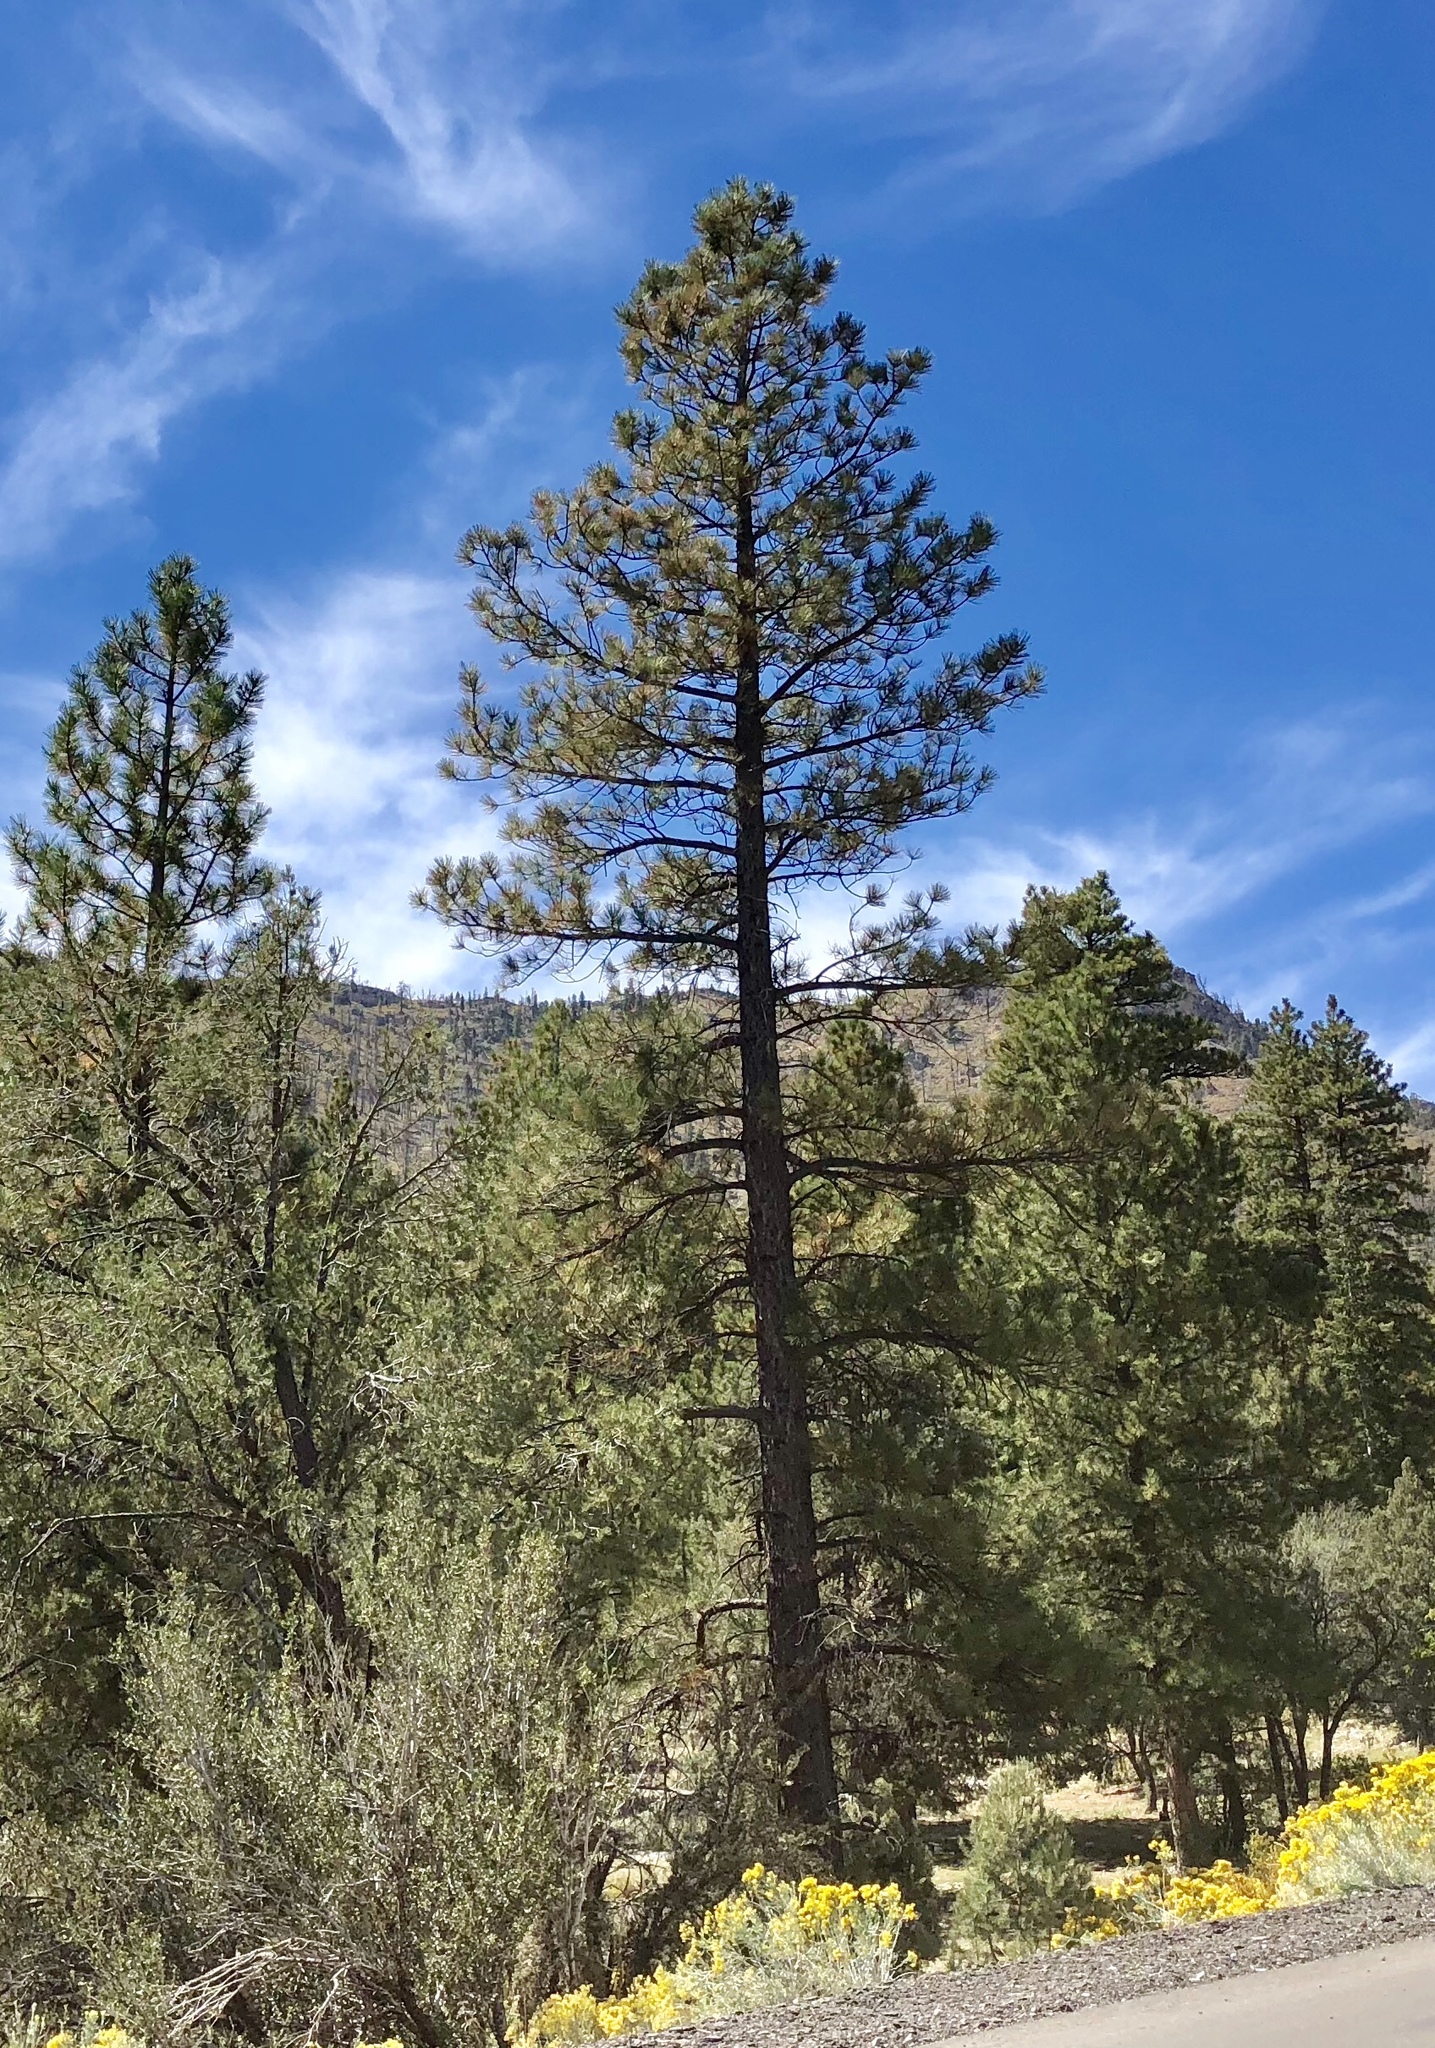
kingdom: Plantae
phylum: Tracheophyta
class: Pinopsida
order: Pinales
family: Pinaceae
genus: Pinus
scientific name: Pinus ponderosa
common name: Western yellow-pine
